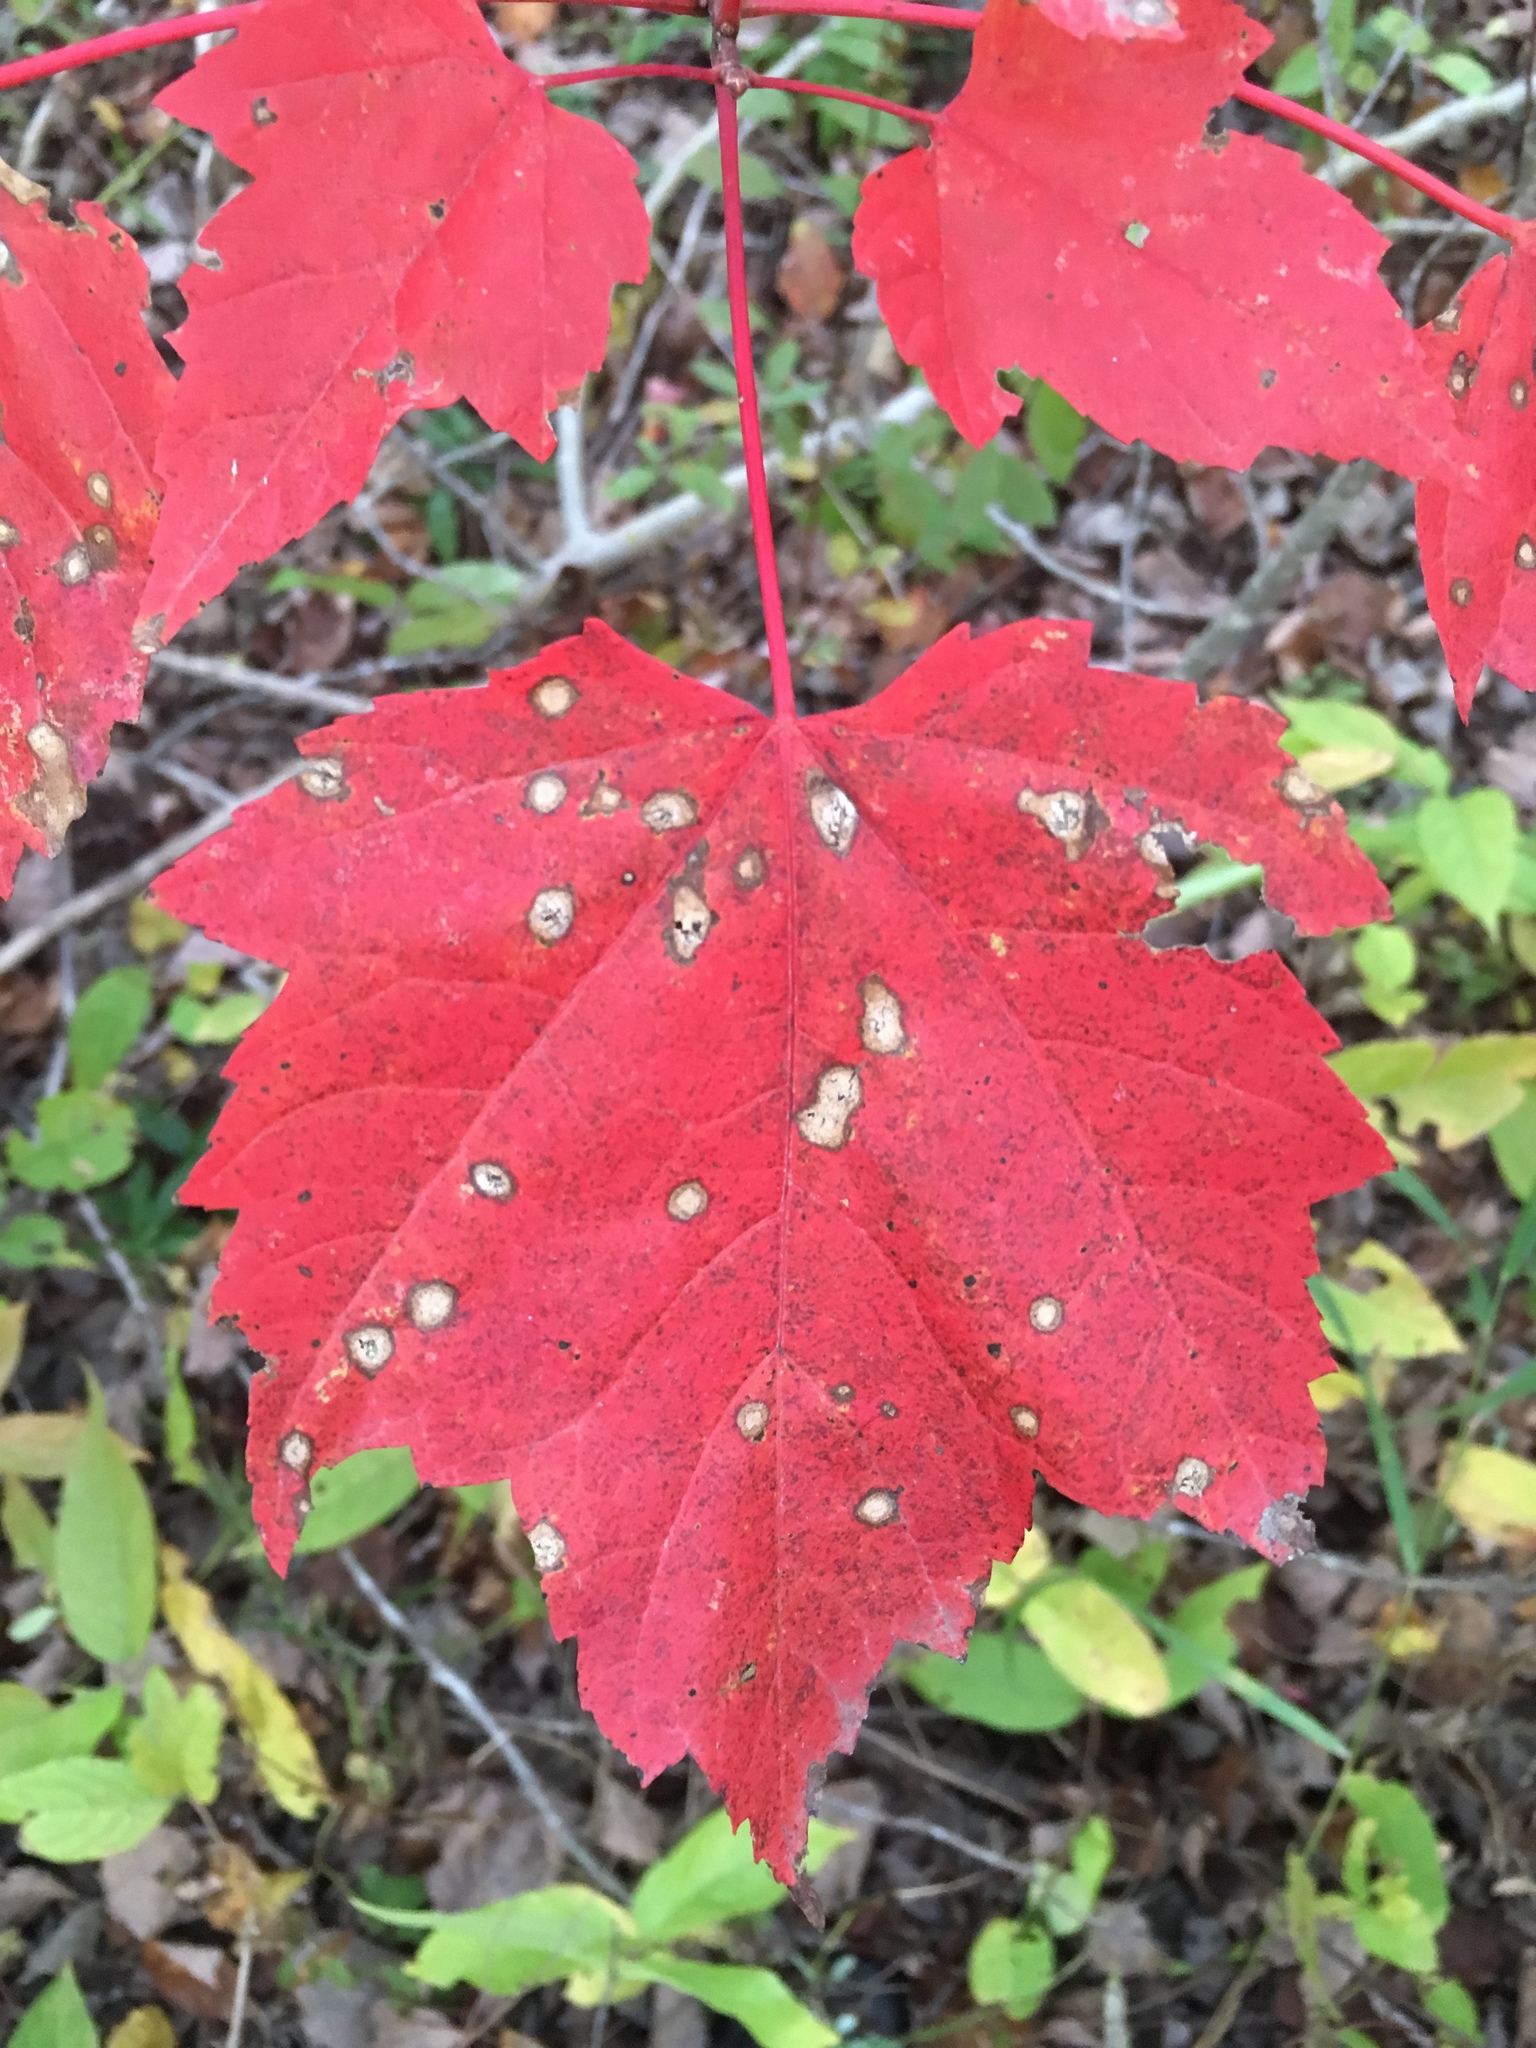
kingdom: Plantae
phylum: Tracheophyta
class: Magnoliopsida
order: Sapindales
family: Sapindaceae
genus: Acer
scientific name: Acer rubrum
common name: Red maple
